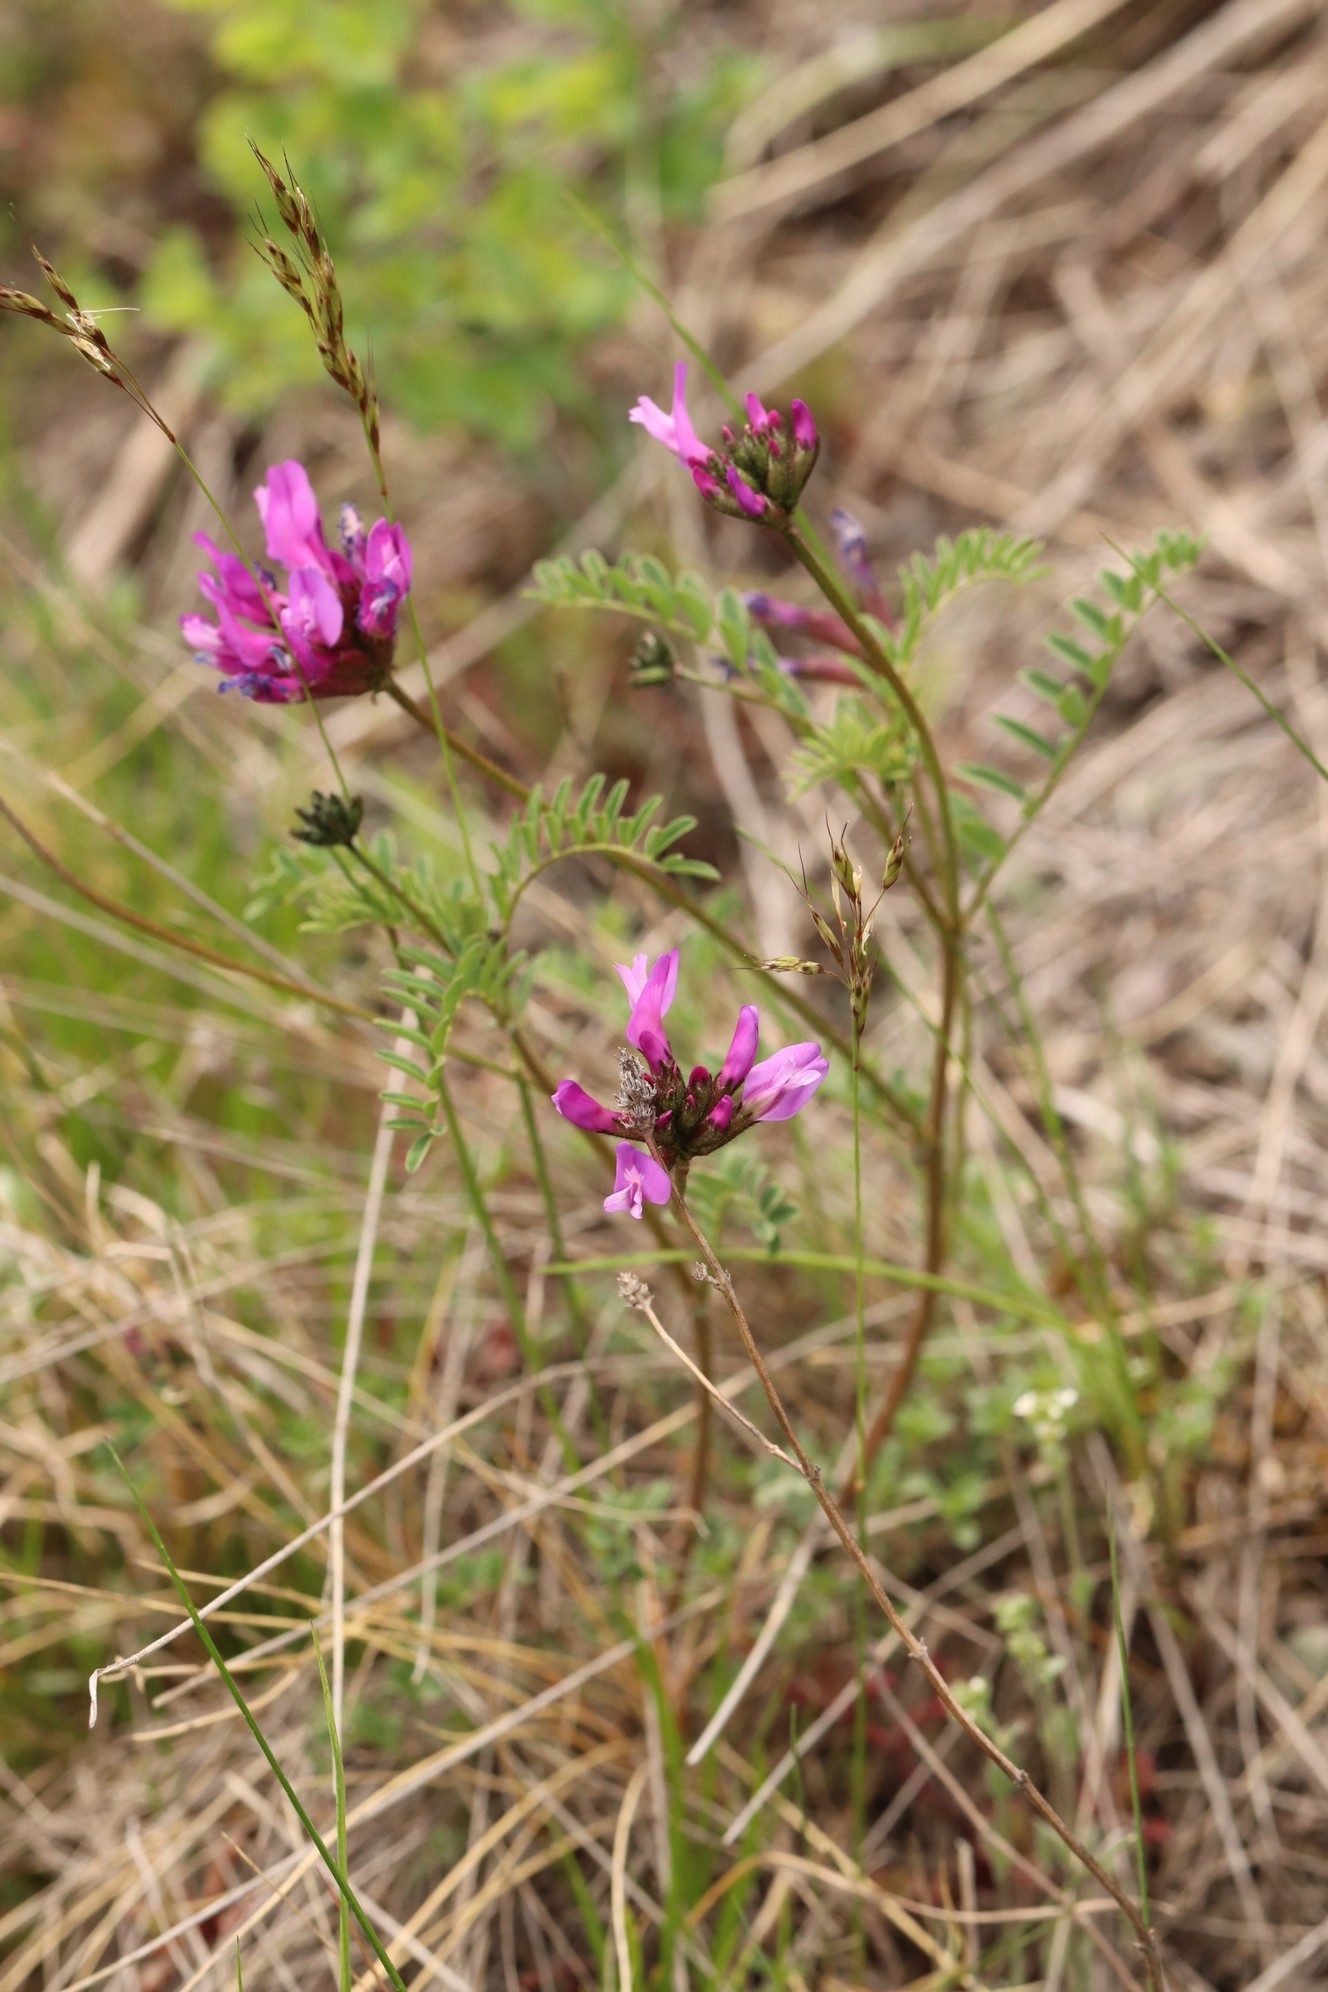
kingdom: Plantae
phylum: Tracheophyta
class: Magnoliopsida
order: Fabales
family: Fabaceae
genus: Astragalus
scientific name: Astragalus ceratoides
